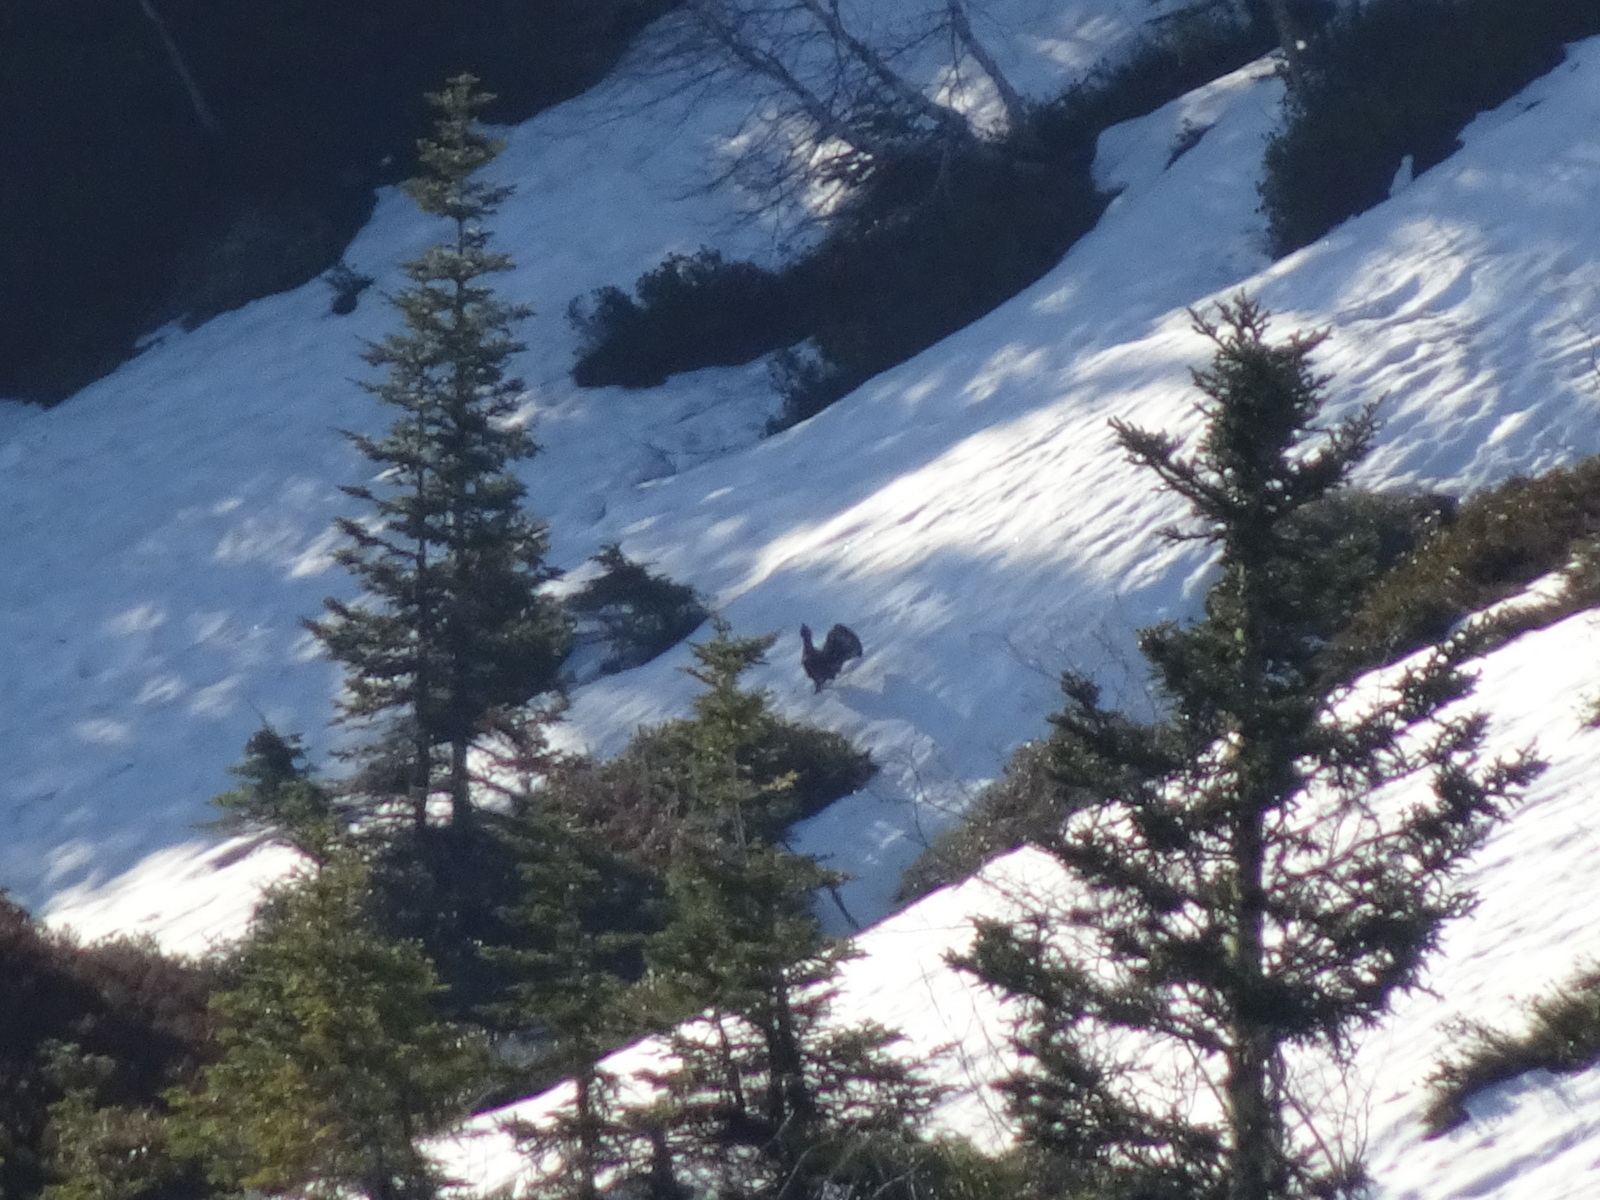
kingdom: Animalia
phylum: Chordata
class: Aves
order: Galliformes
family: Phasianidae
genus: Tetrao
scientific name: Tetrao urogallus
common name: Western capercaillie
